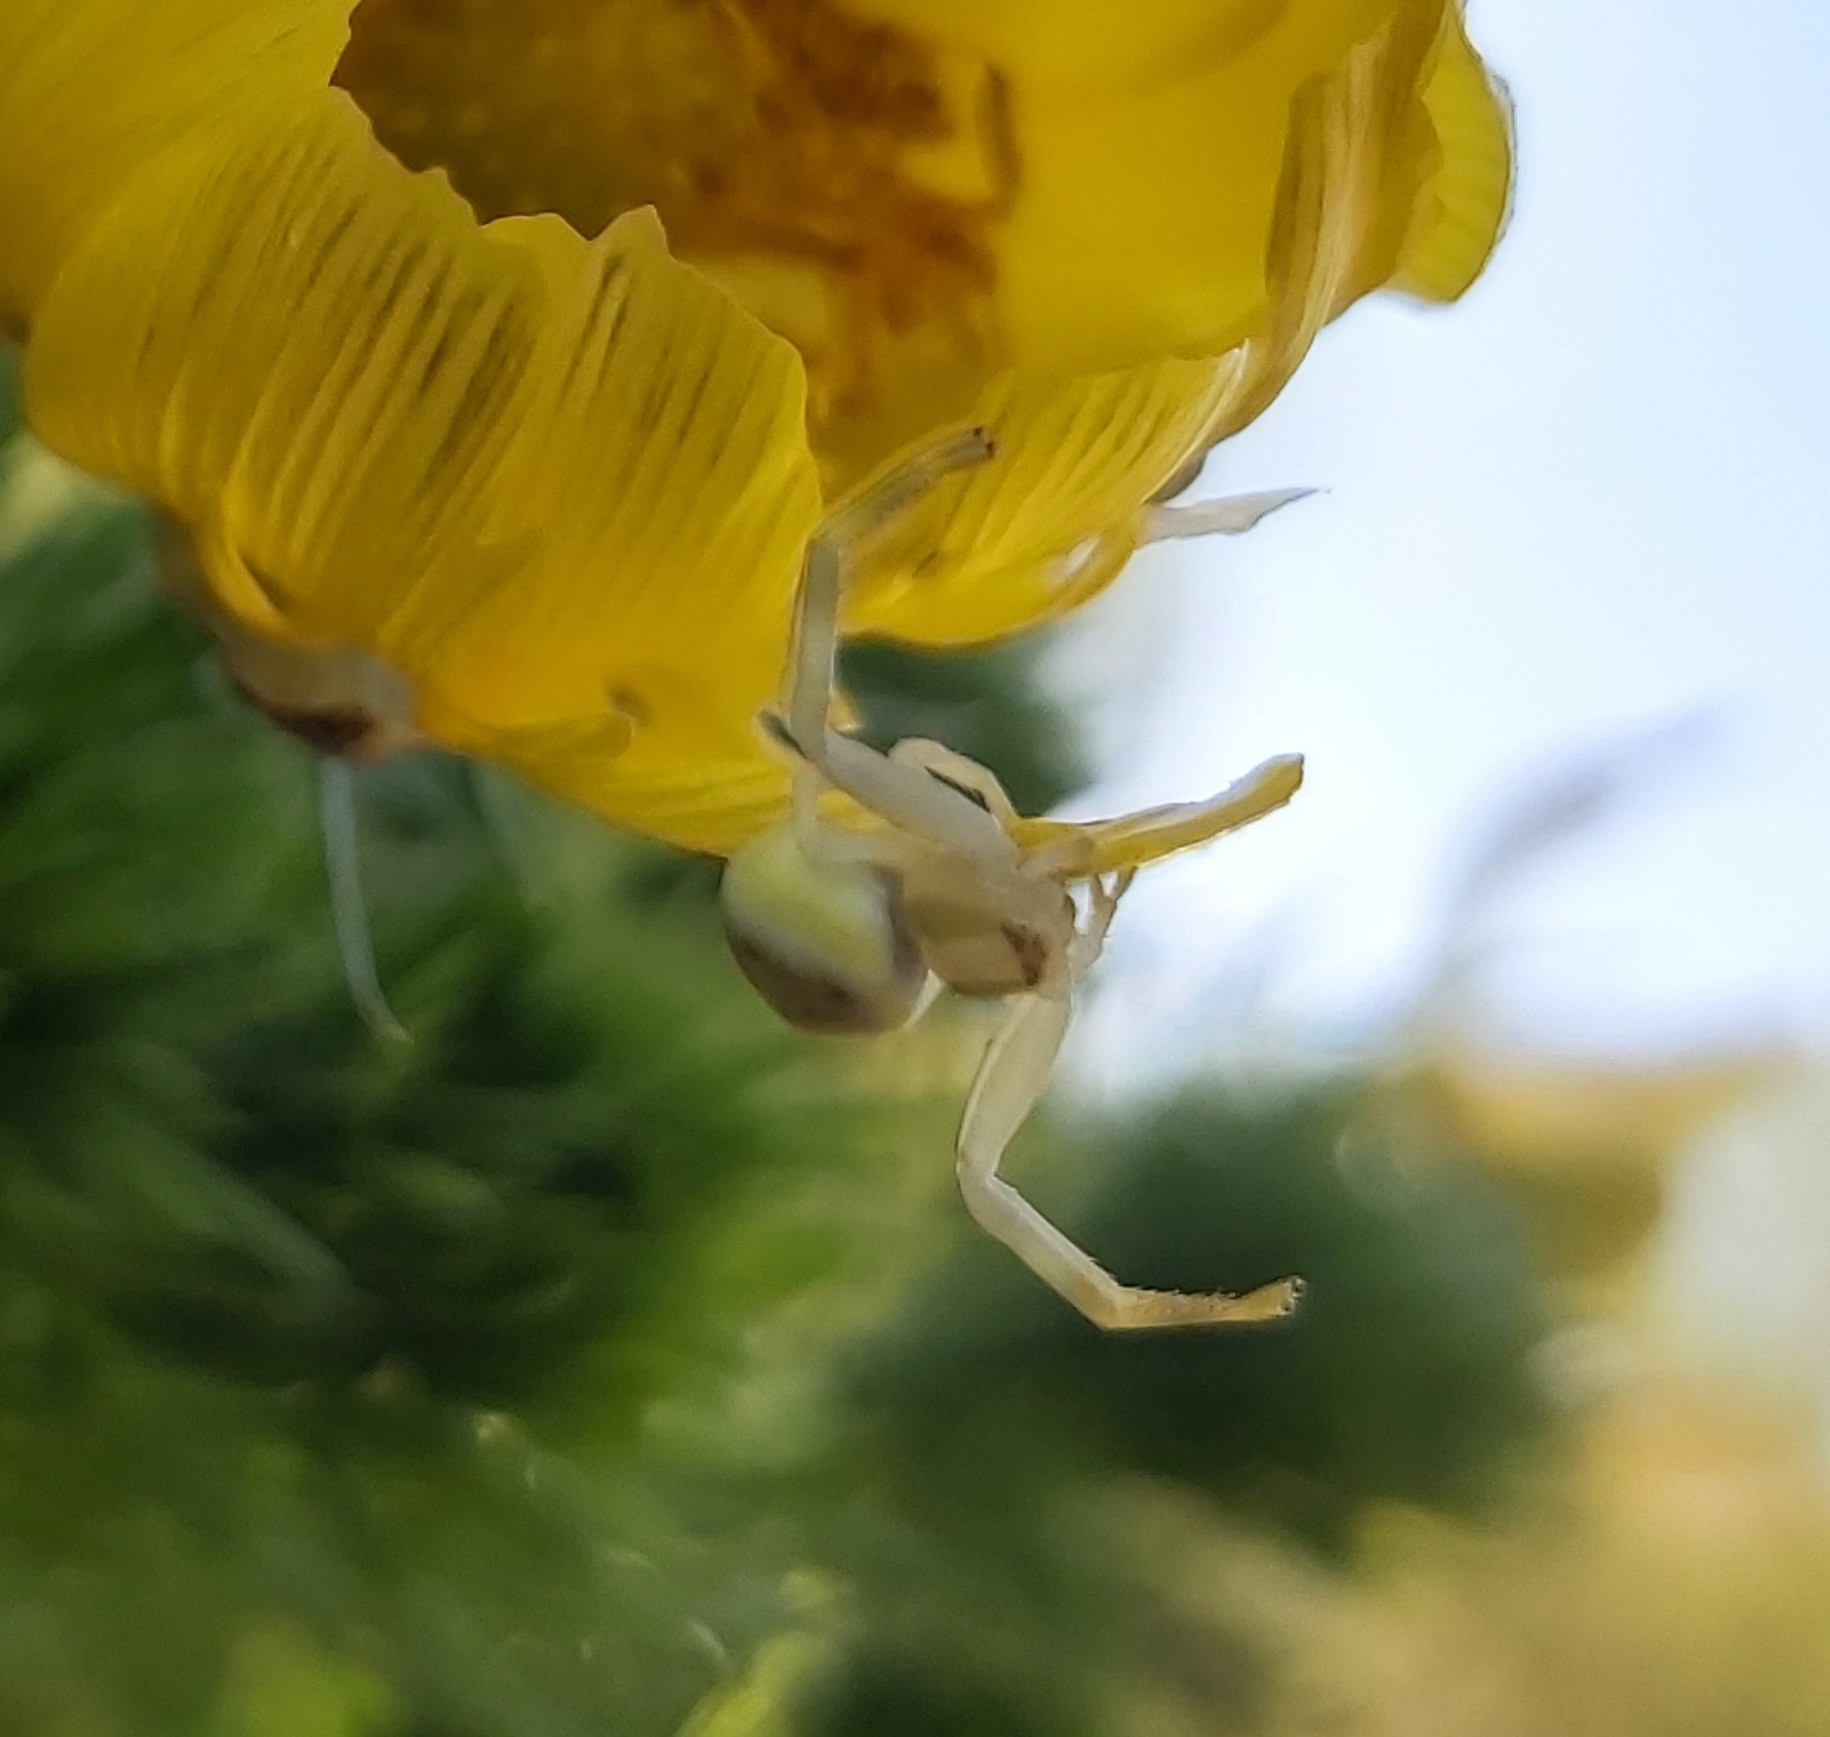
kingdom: Animalia
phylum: Arthropoda
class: Arachnida
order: Araneae
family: Thomisidae
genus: Misumena
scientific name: Misumena vatia
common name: Goldenrod crab spider
